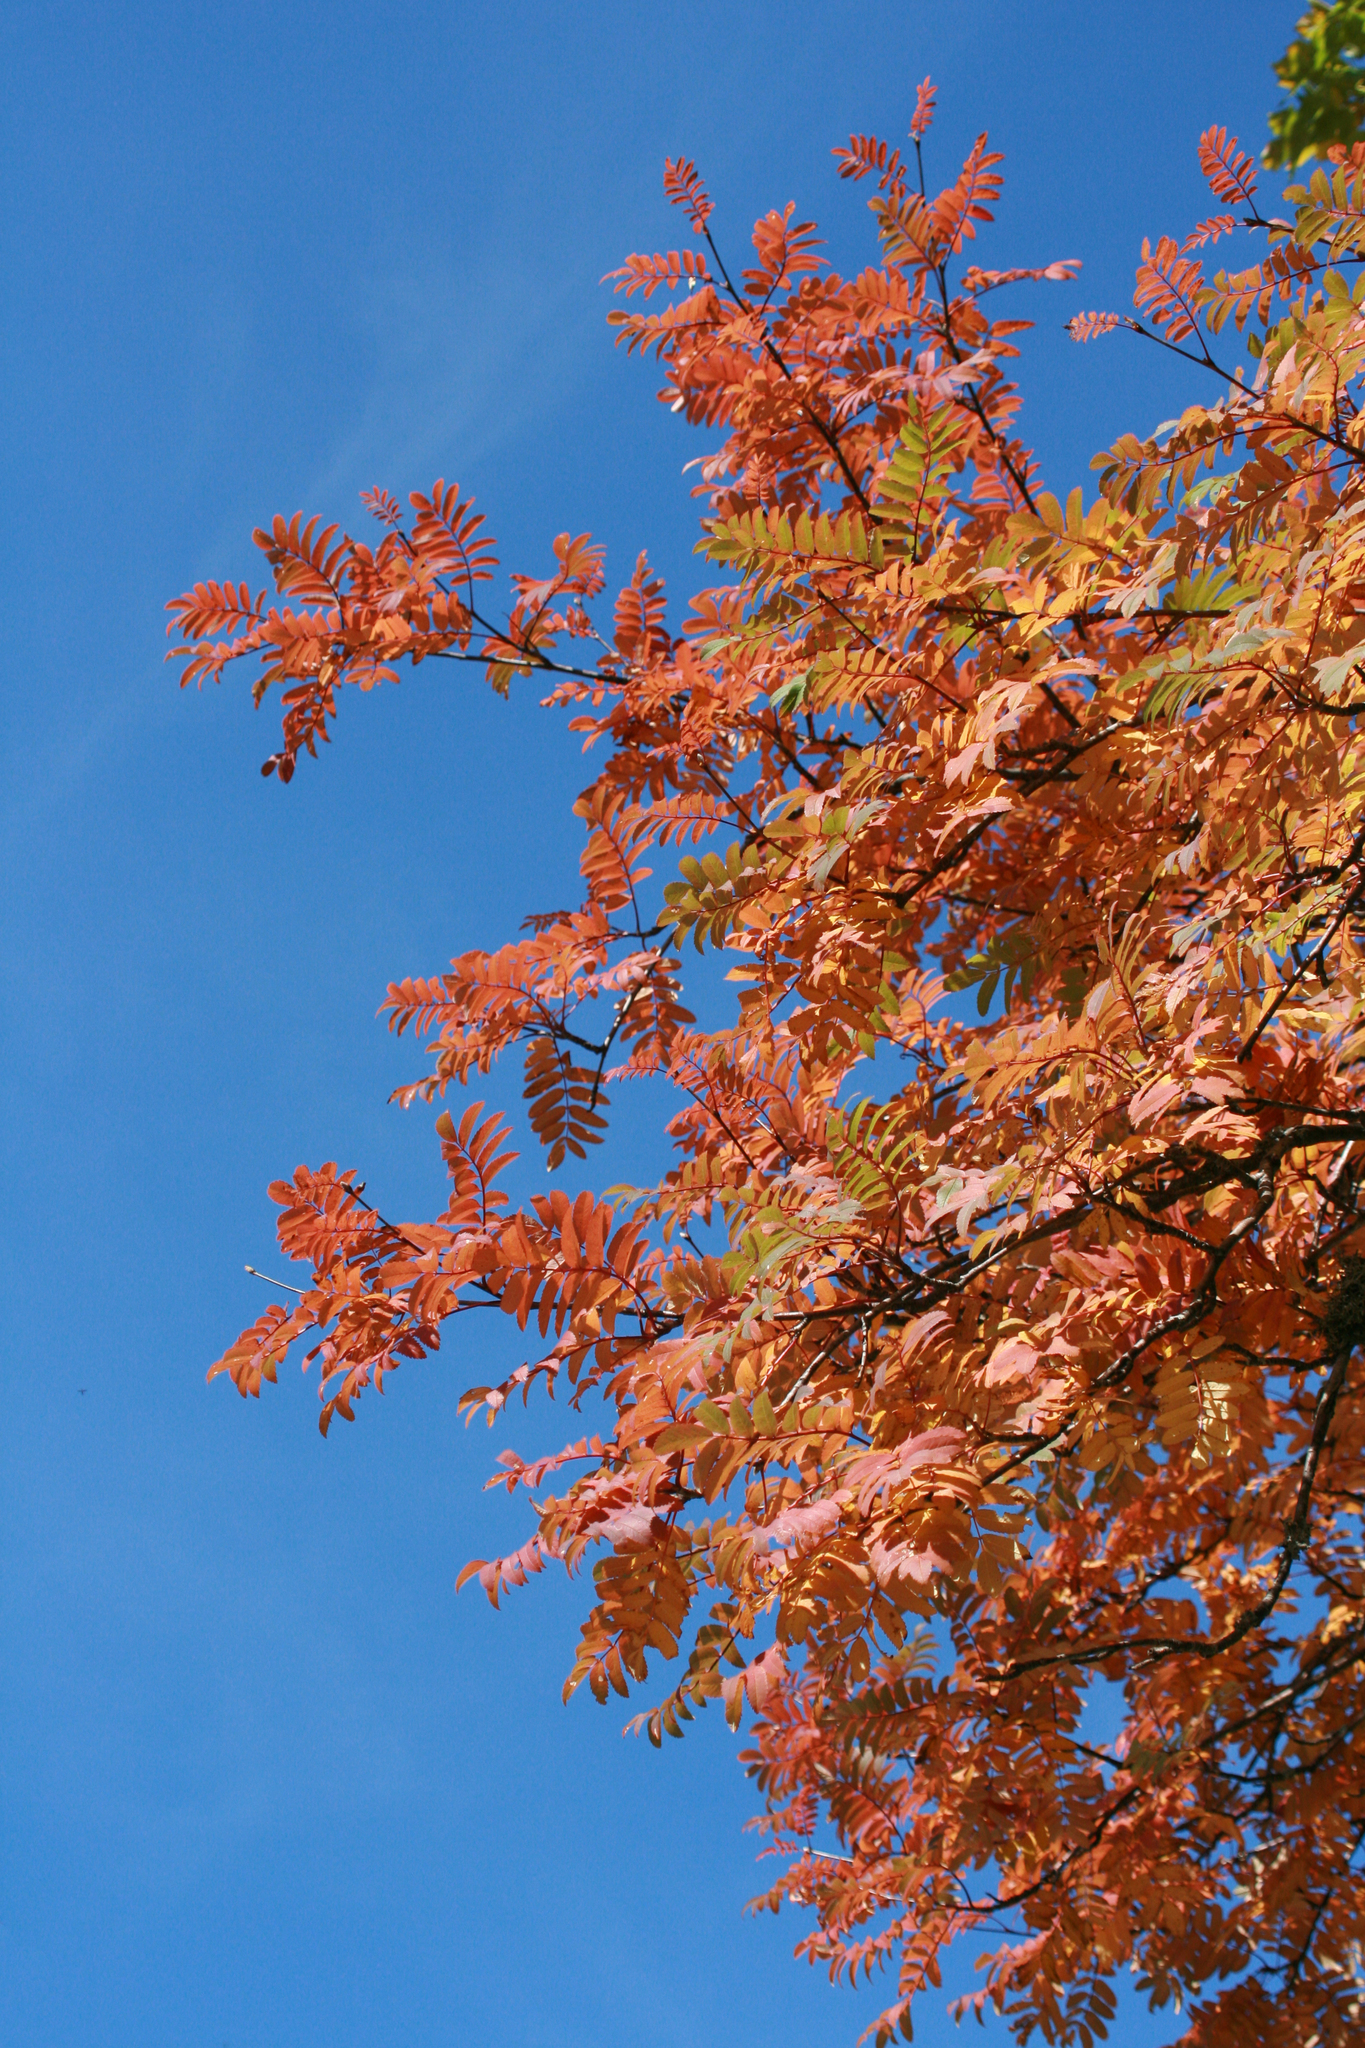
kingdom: Plantae
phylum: Tracheophyta
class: Magnoliopsida
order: Rosales
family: Rosaceae
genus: Sorbus
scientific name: Sorbus aucuparia
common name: Rowan
